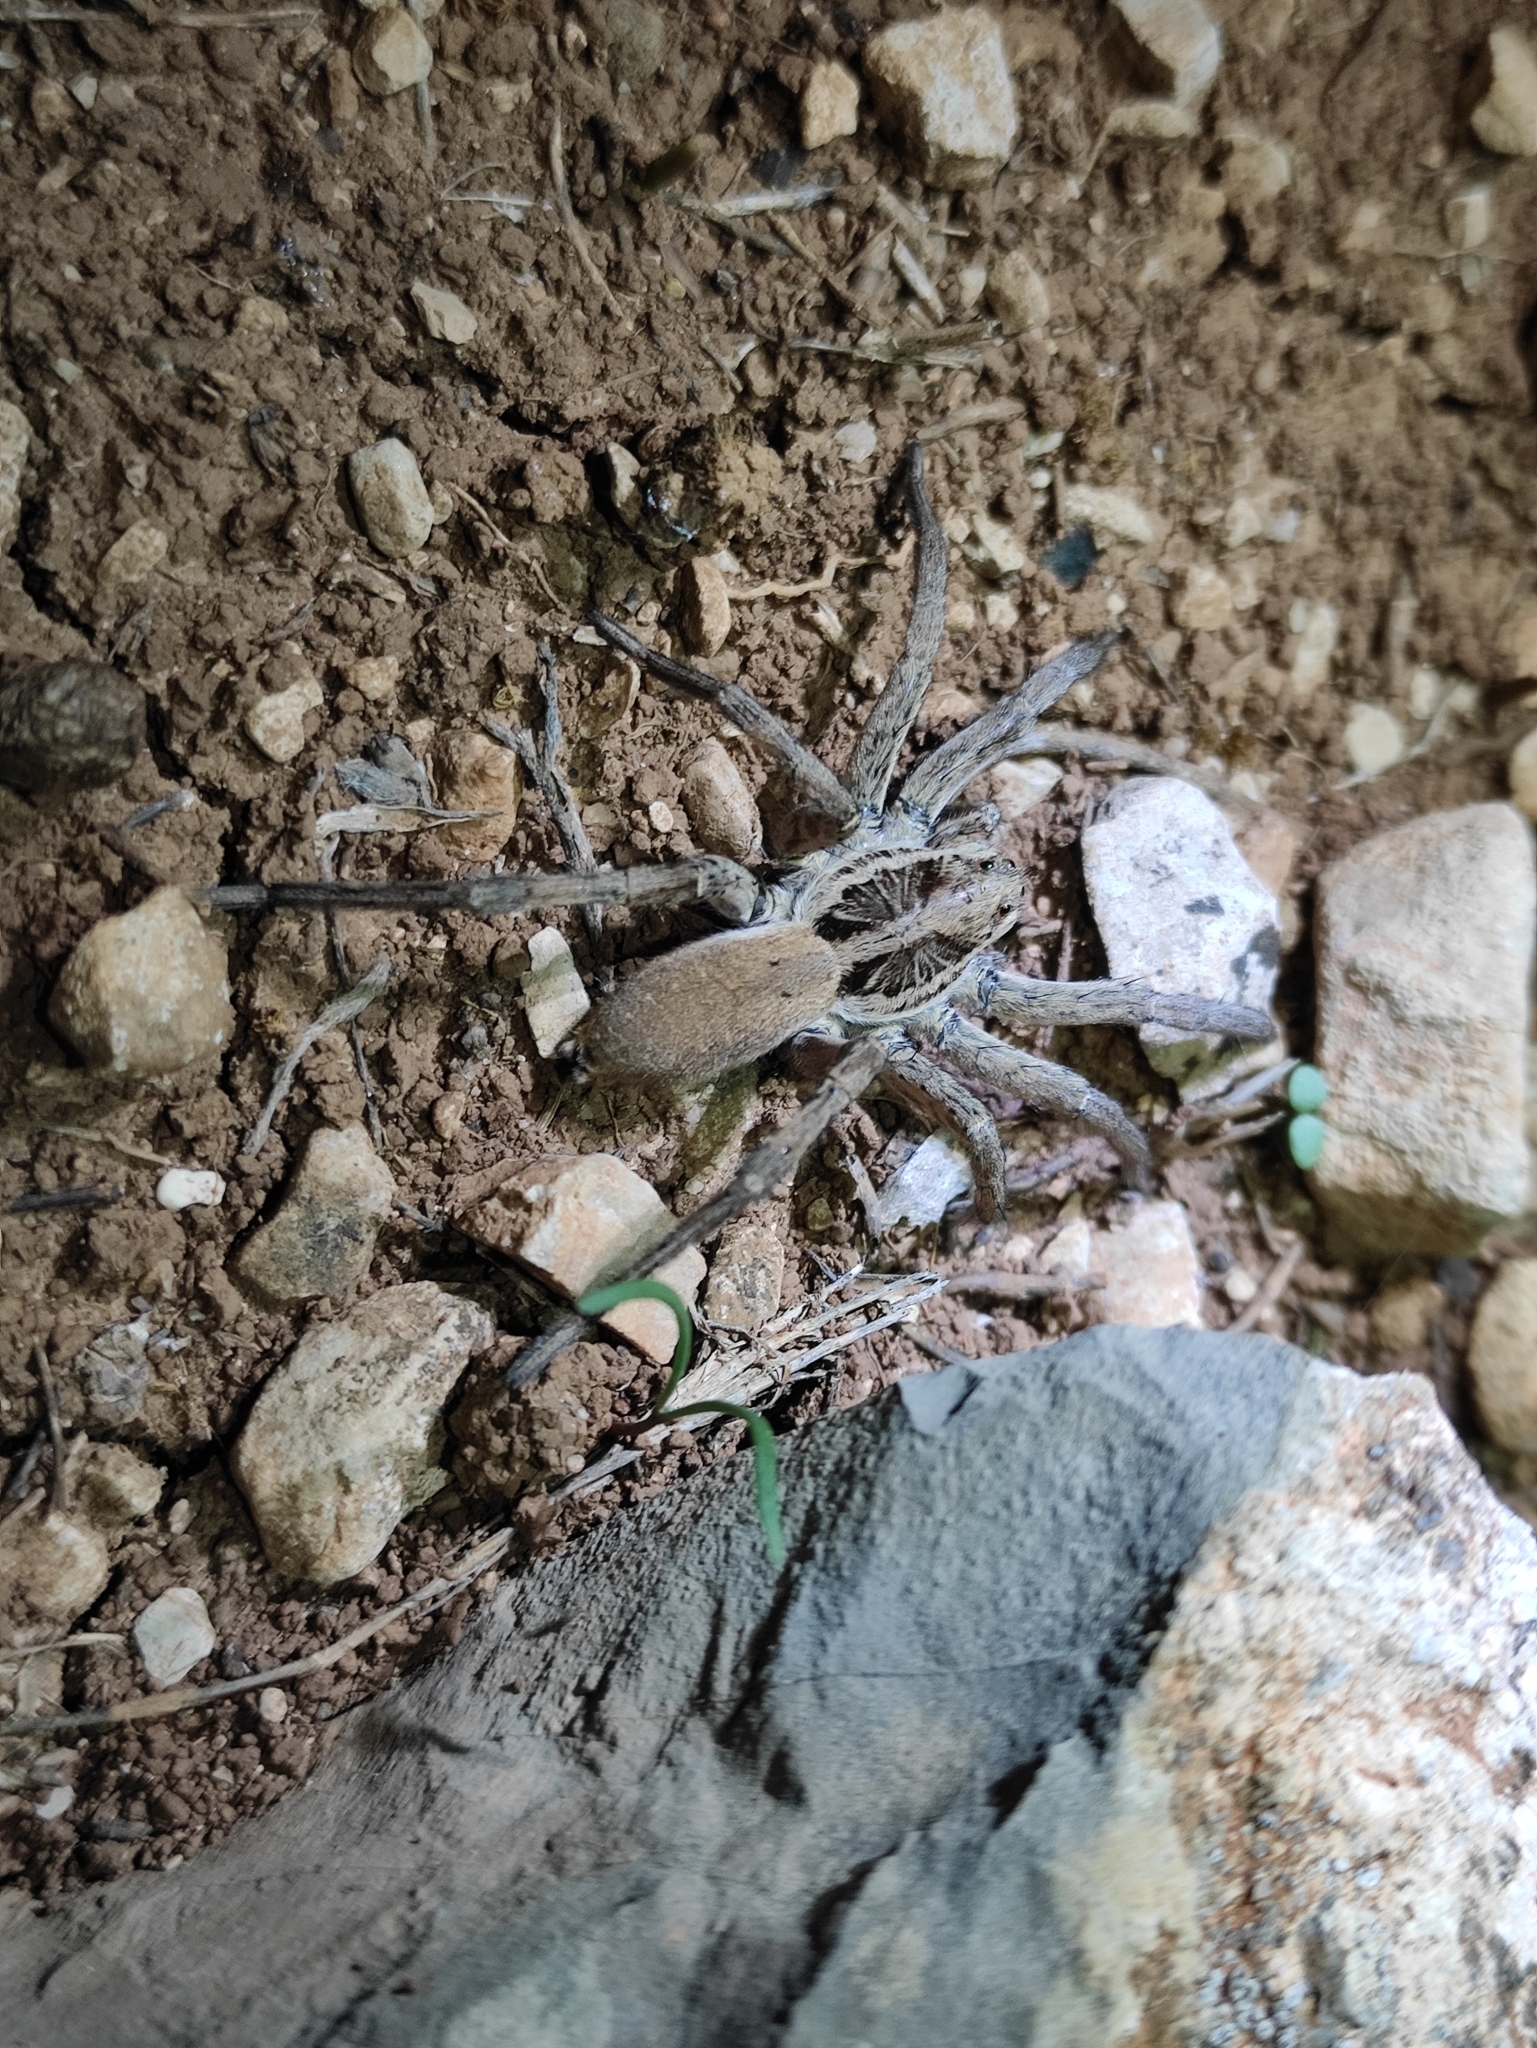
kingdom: Animalia
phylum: Arthropoda
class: Arachnida
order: Araneae
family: Lycosidae
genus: Hogna
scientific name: Hogna radiata
